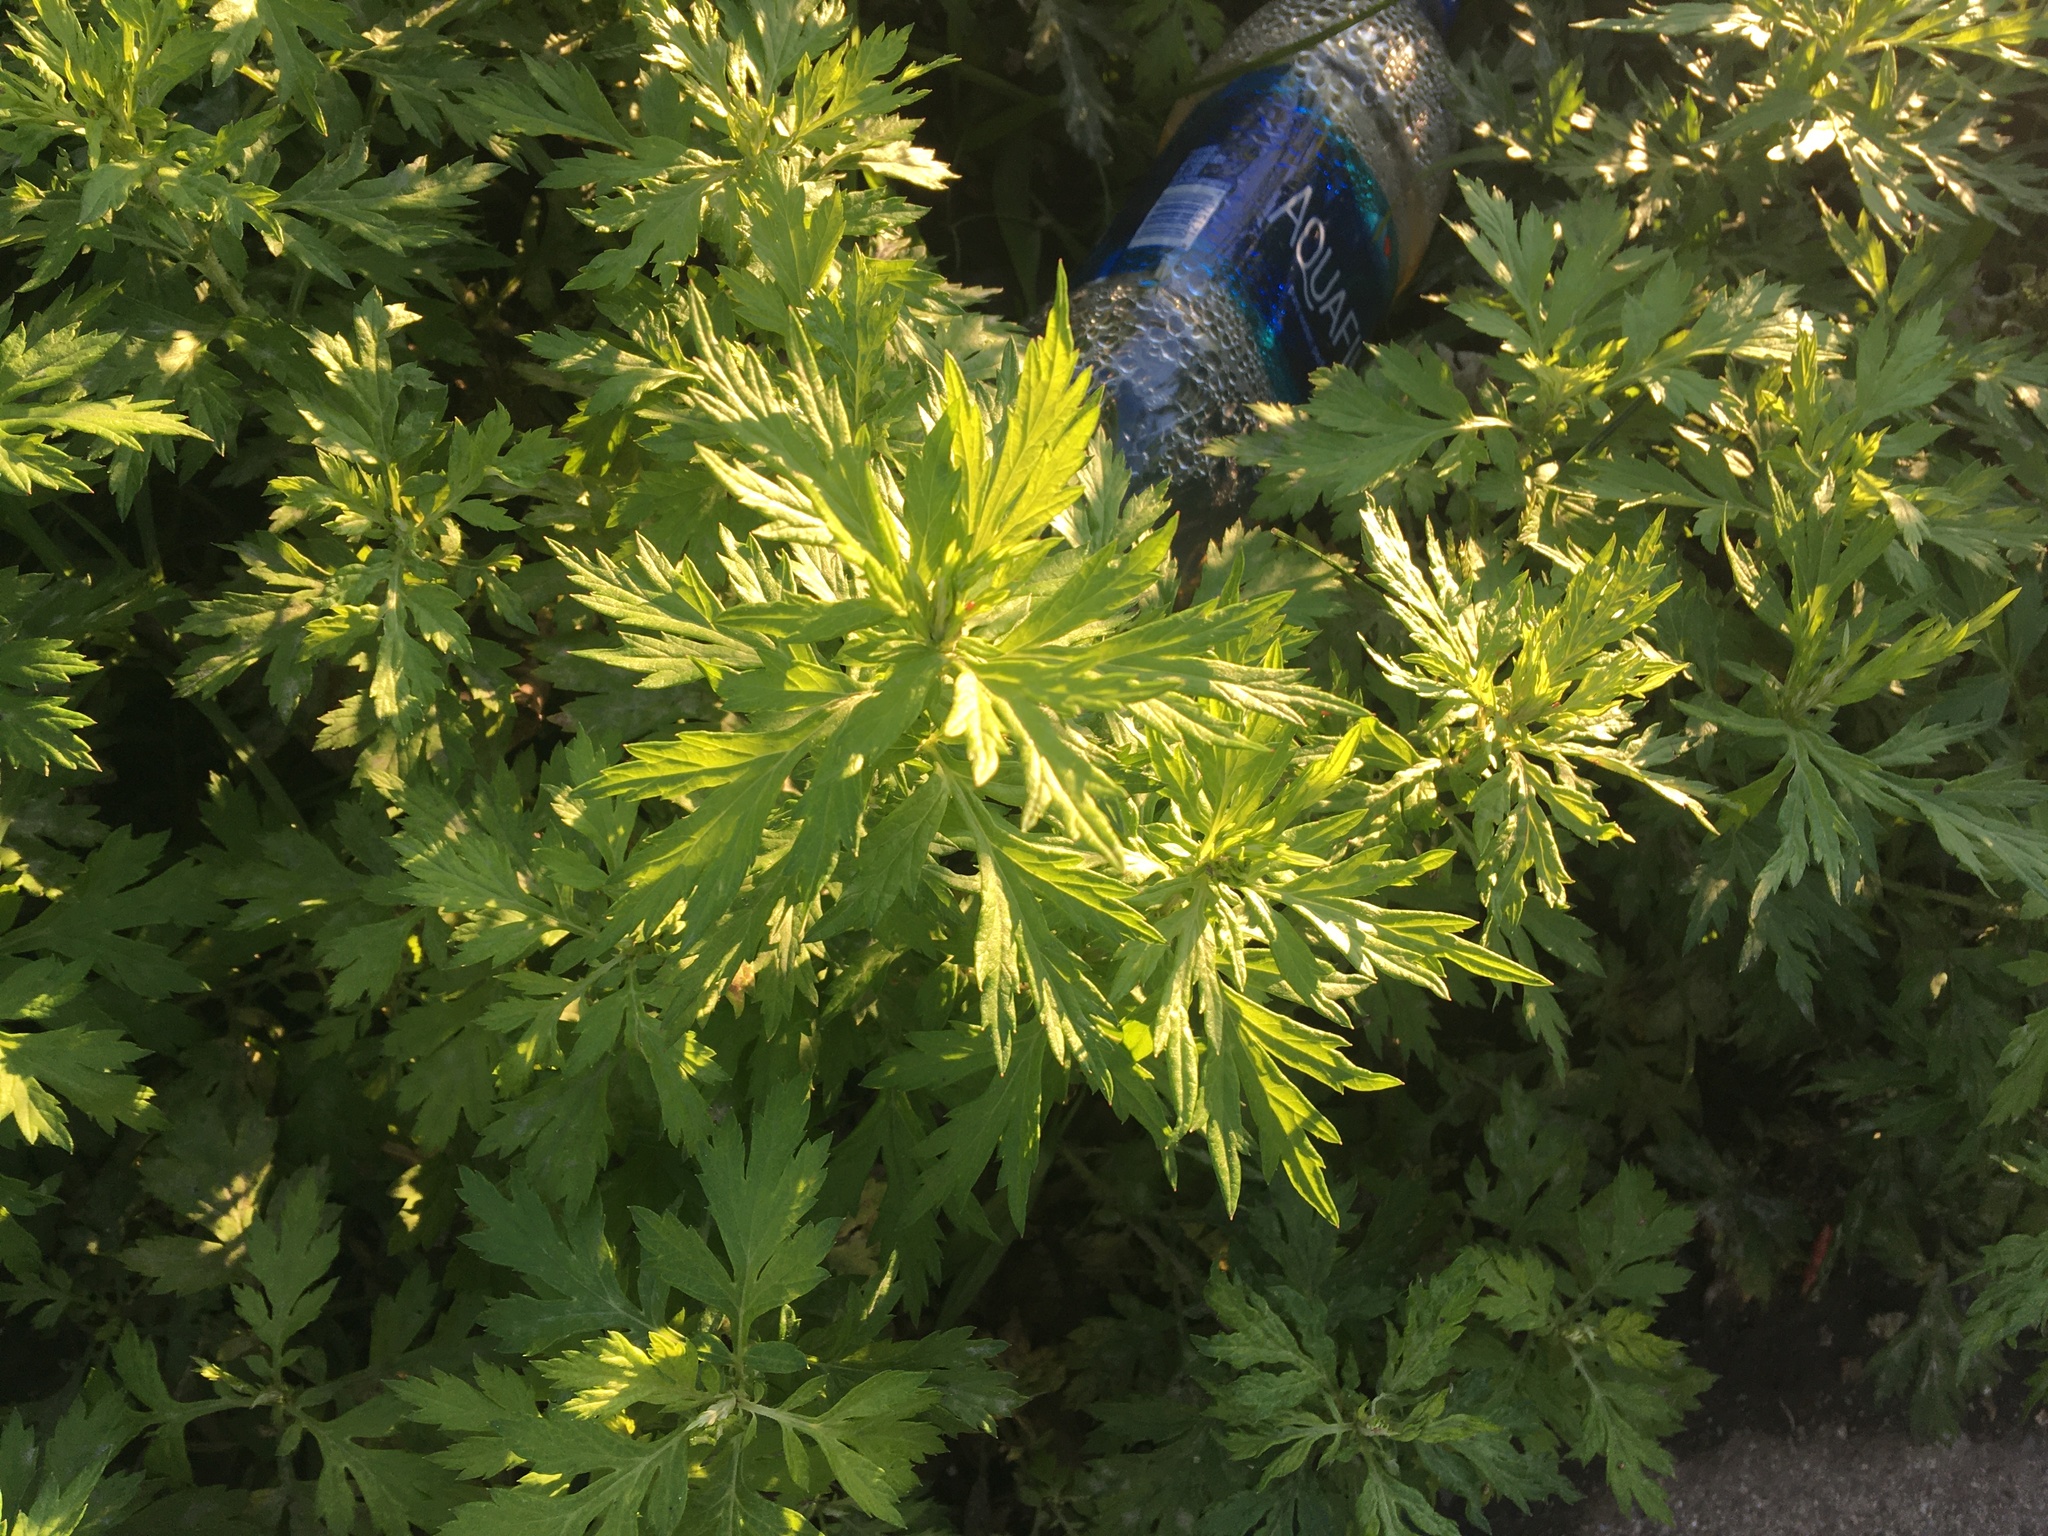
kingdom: Plantae
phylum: Tracheophyta
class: Magnoliopsida
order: Asterales
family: Asteraceae
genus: Artemisia
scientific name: Artemisia vulgaris
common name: Mugwort
